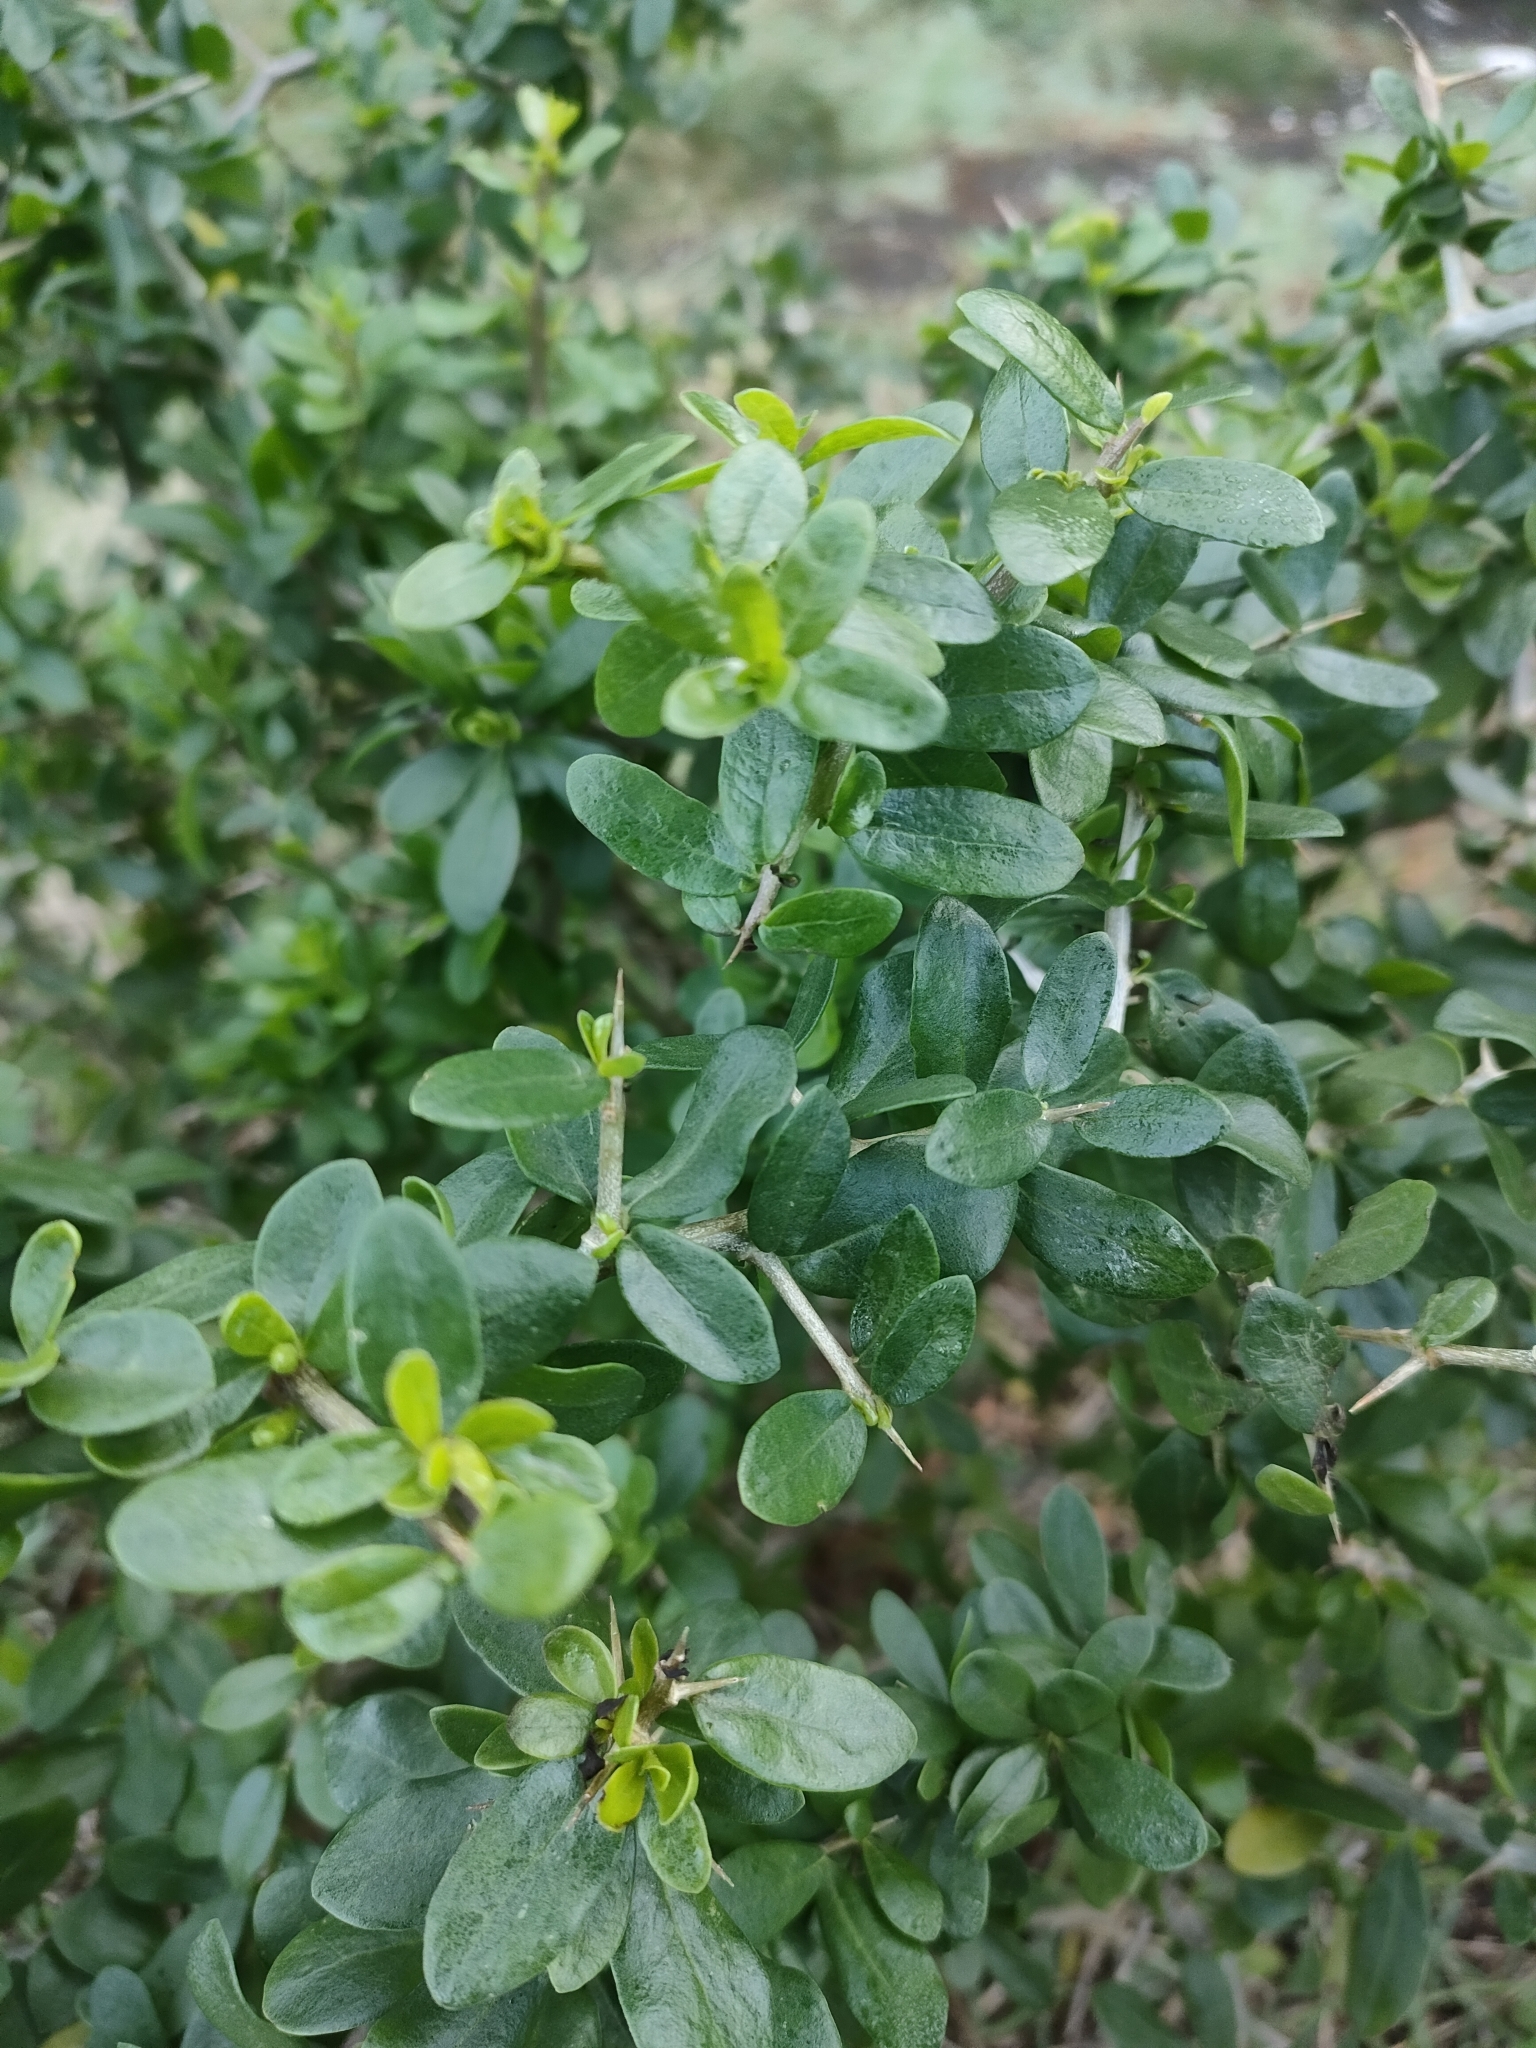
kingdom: Plantae
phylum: Tracheophyta
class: Magnoliopsida
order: Solanales
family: Solanaceae
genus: Lycium
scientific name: Lycium ferocissimum
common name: African boxthorn
